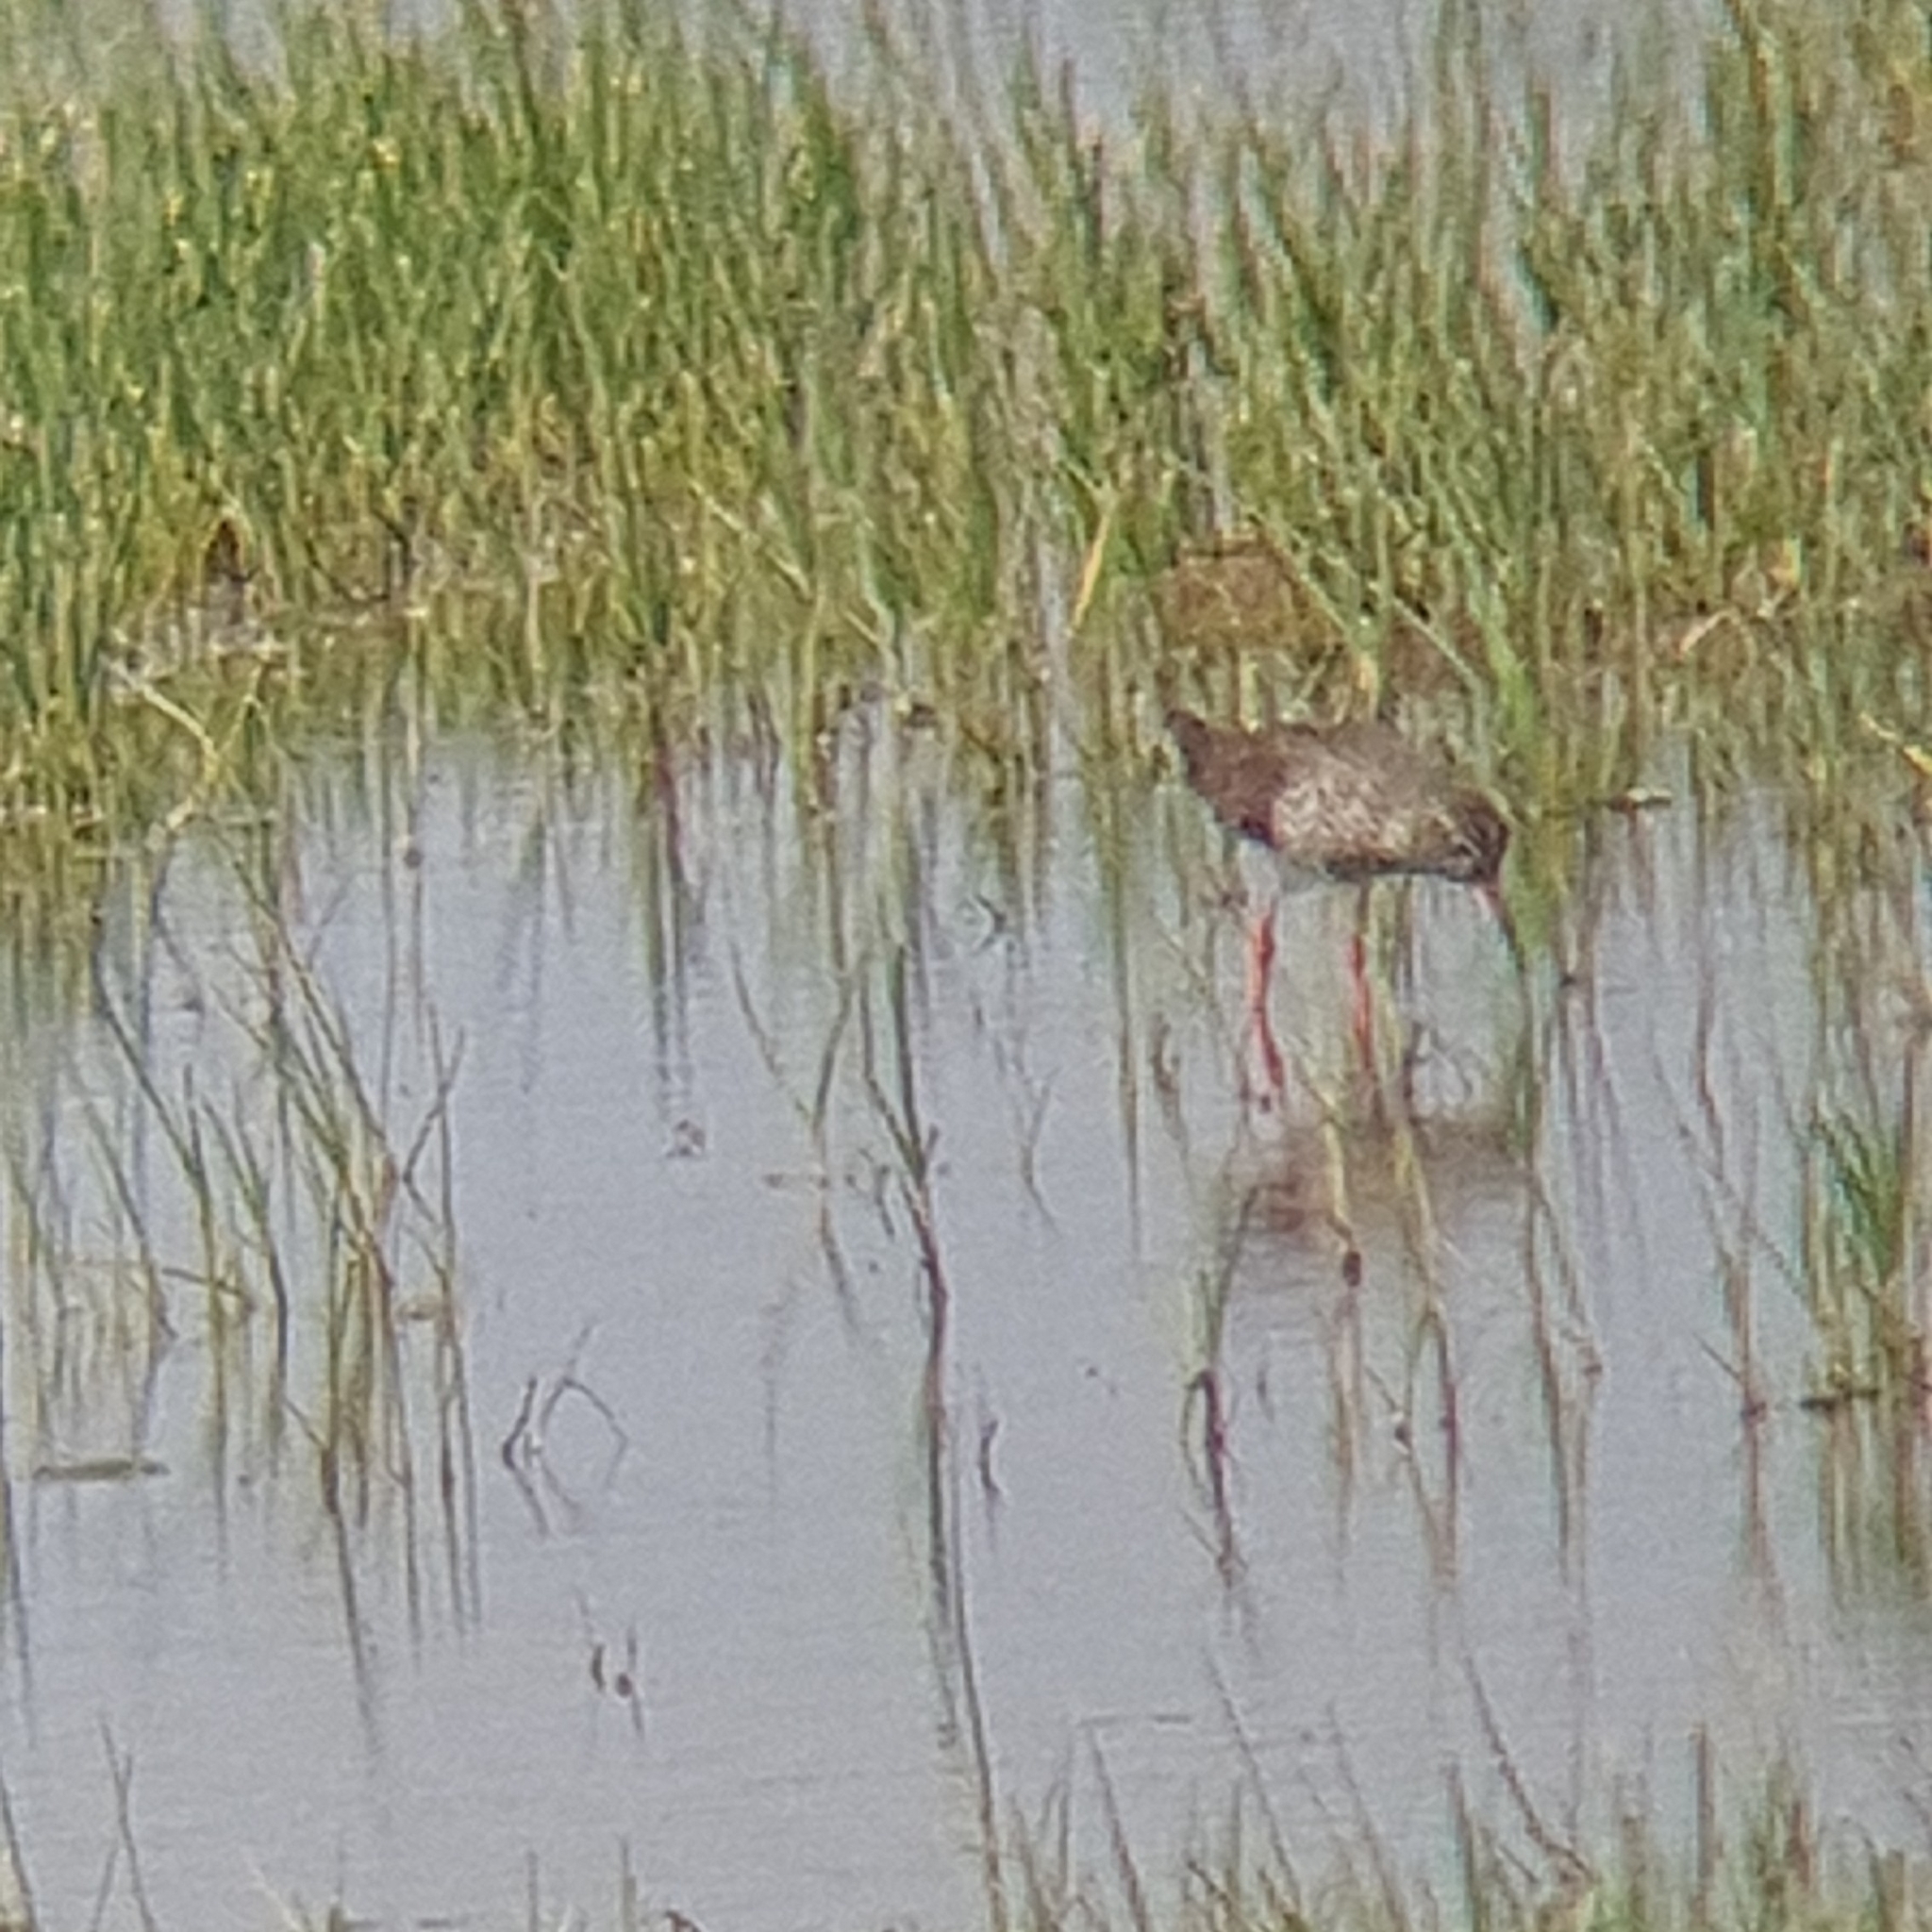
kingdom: Animalia
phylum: Chordata
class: Aves
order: Charadriiformes
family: Scolopacidae
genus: Tringa
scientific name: Tringa totanus
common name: Common redshank
